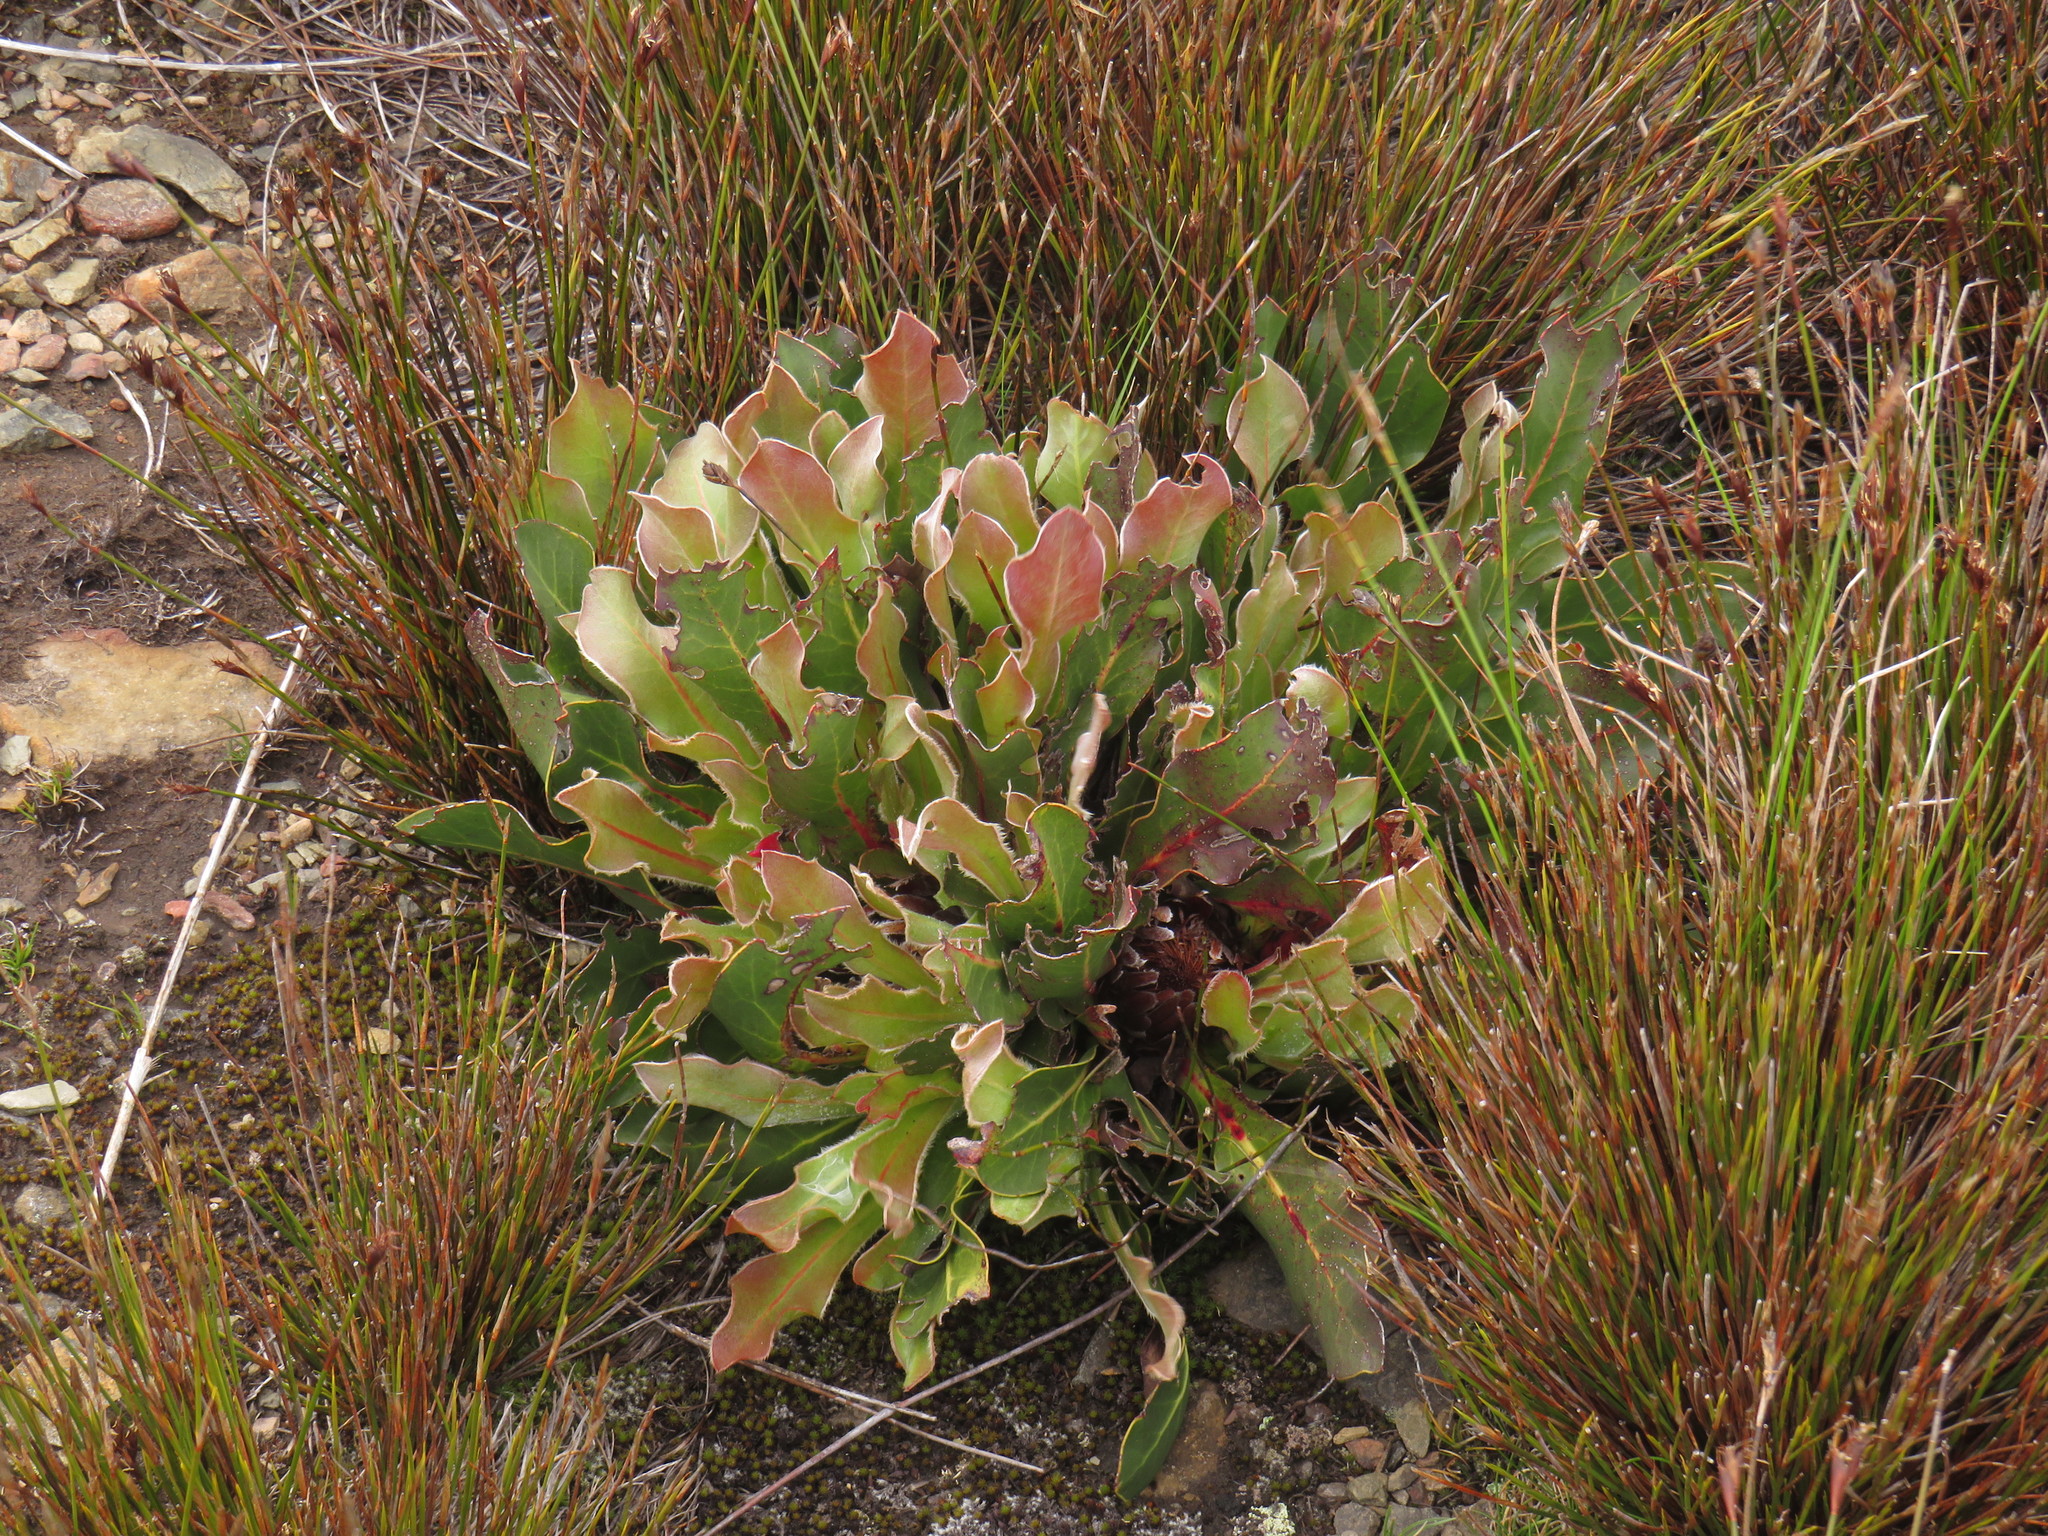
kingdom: Plantae
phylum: Tracheophyta
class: Magnoliopsida
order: Proteales
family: Proteaceae
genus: Protea
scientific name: Protea caespitosa
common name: Bishop sugarbush
